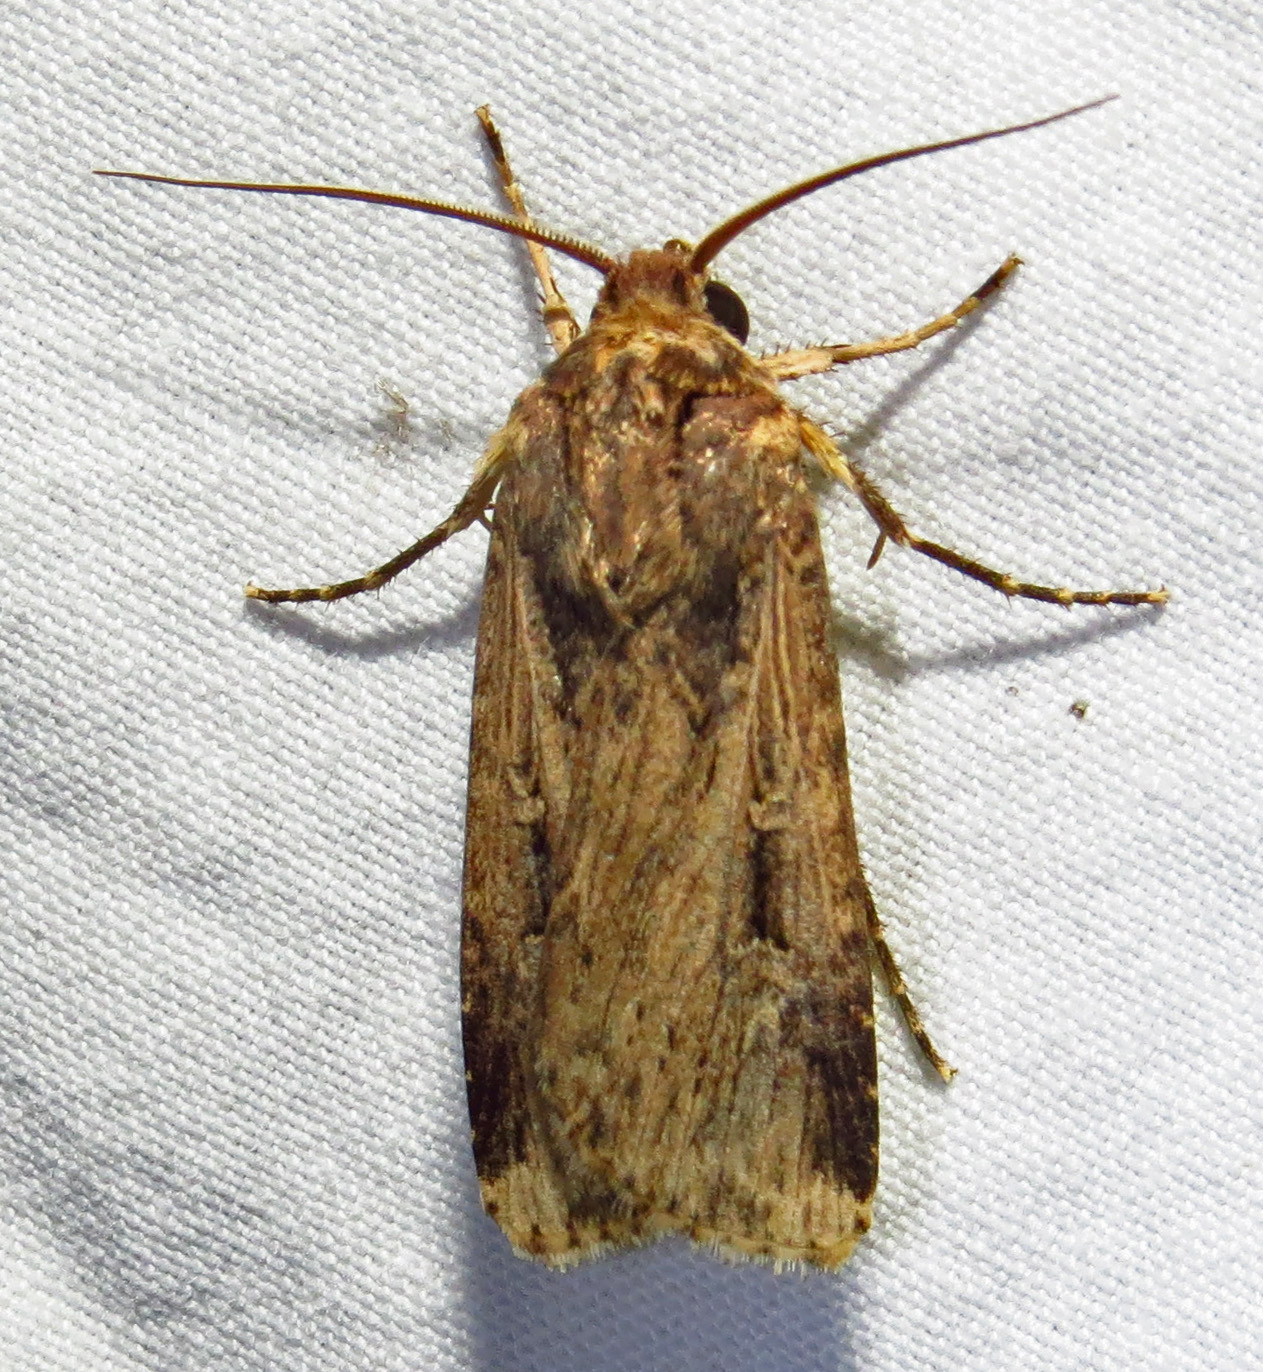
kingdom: Animalia
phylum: Arthropoda
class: Insecta
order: Lepidoptera
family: Noctuidae
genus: Feltia
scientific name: Feltia subterranea
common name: Granulate cutworm
